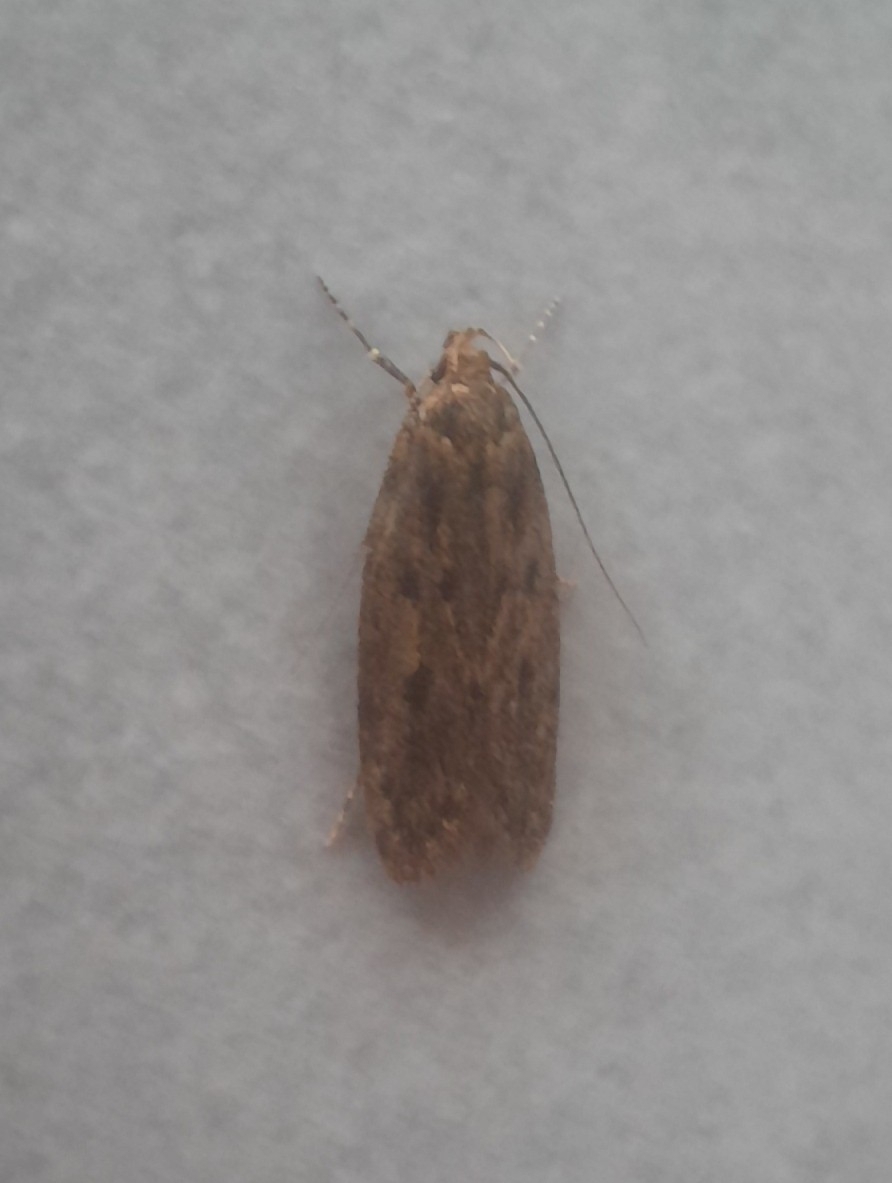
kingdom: Animalia
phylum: Arthropoda
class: Insecta
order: Lepidoptera
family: Oecophoridae
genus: Hofmannophila
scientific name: Hofmannophila pseudospretella
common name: Brown house moth
